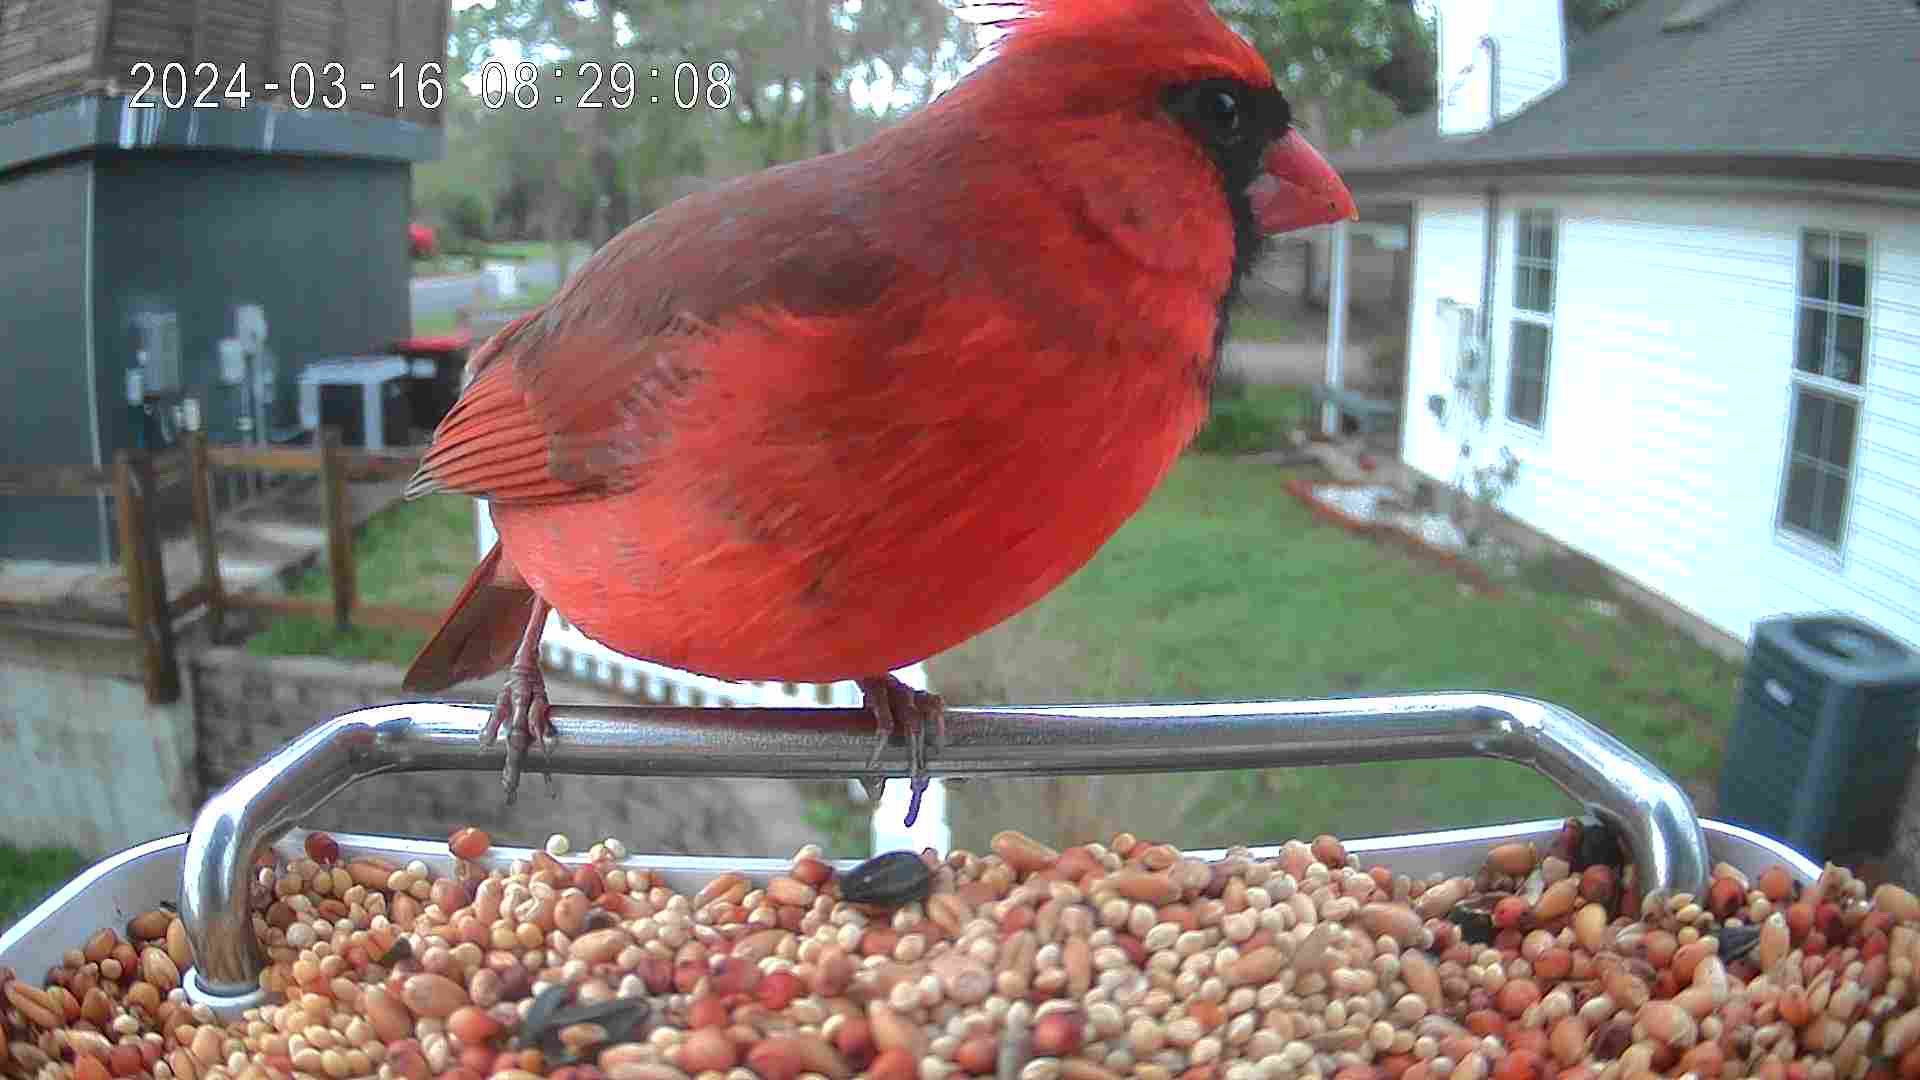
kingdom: Animalia
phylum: Chordata
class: Aves
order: Passeriformes
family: Cardinalidae
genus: Cardinalis
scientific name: Cardinalis cardinalis
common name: Northern cardinal
